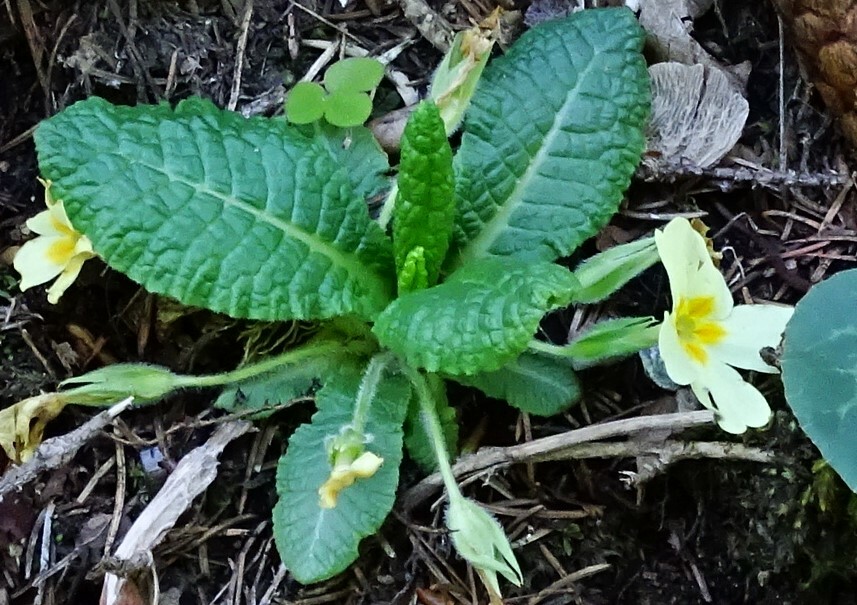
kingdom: Plantae
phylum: Tracheophyta
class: Magnoliopsida
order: Ericales
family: Primulaceae
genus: Primula
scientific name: Primula vulgaris
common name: Primrose
